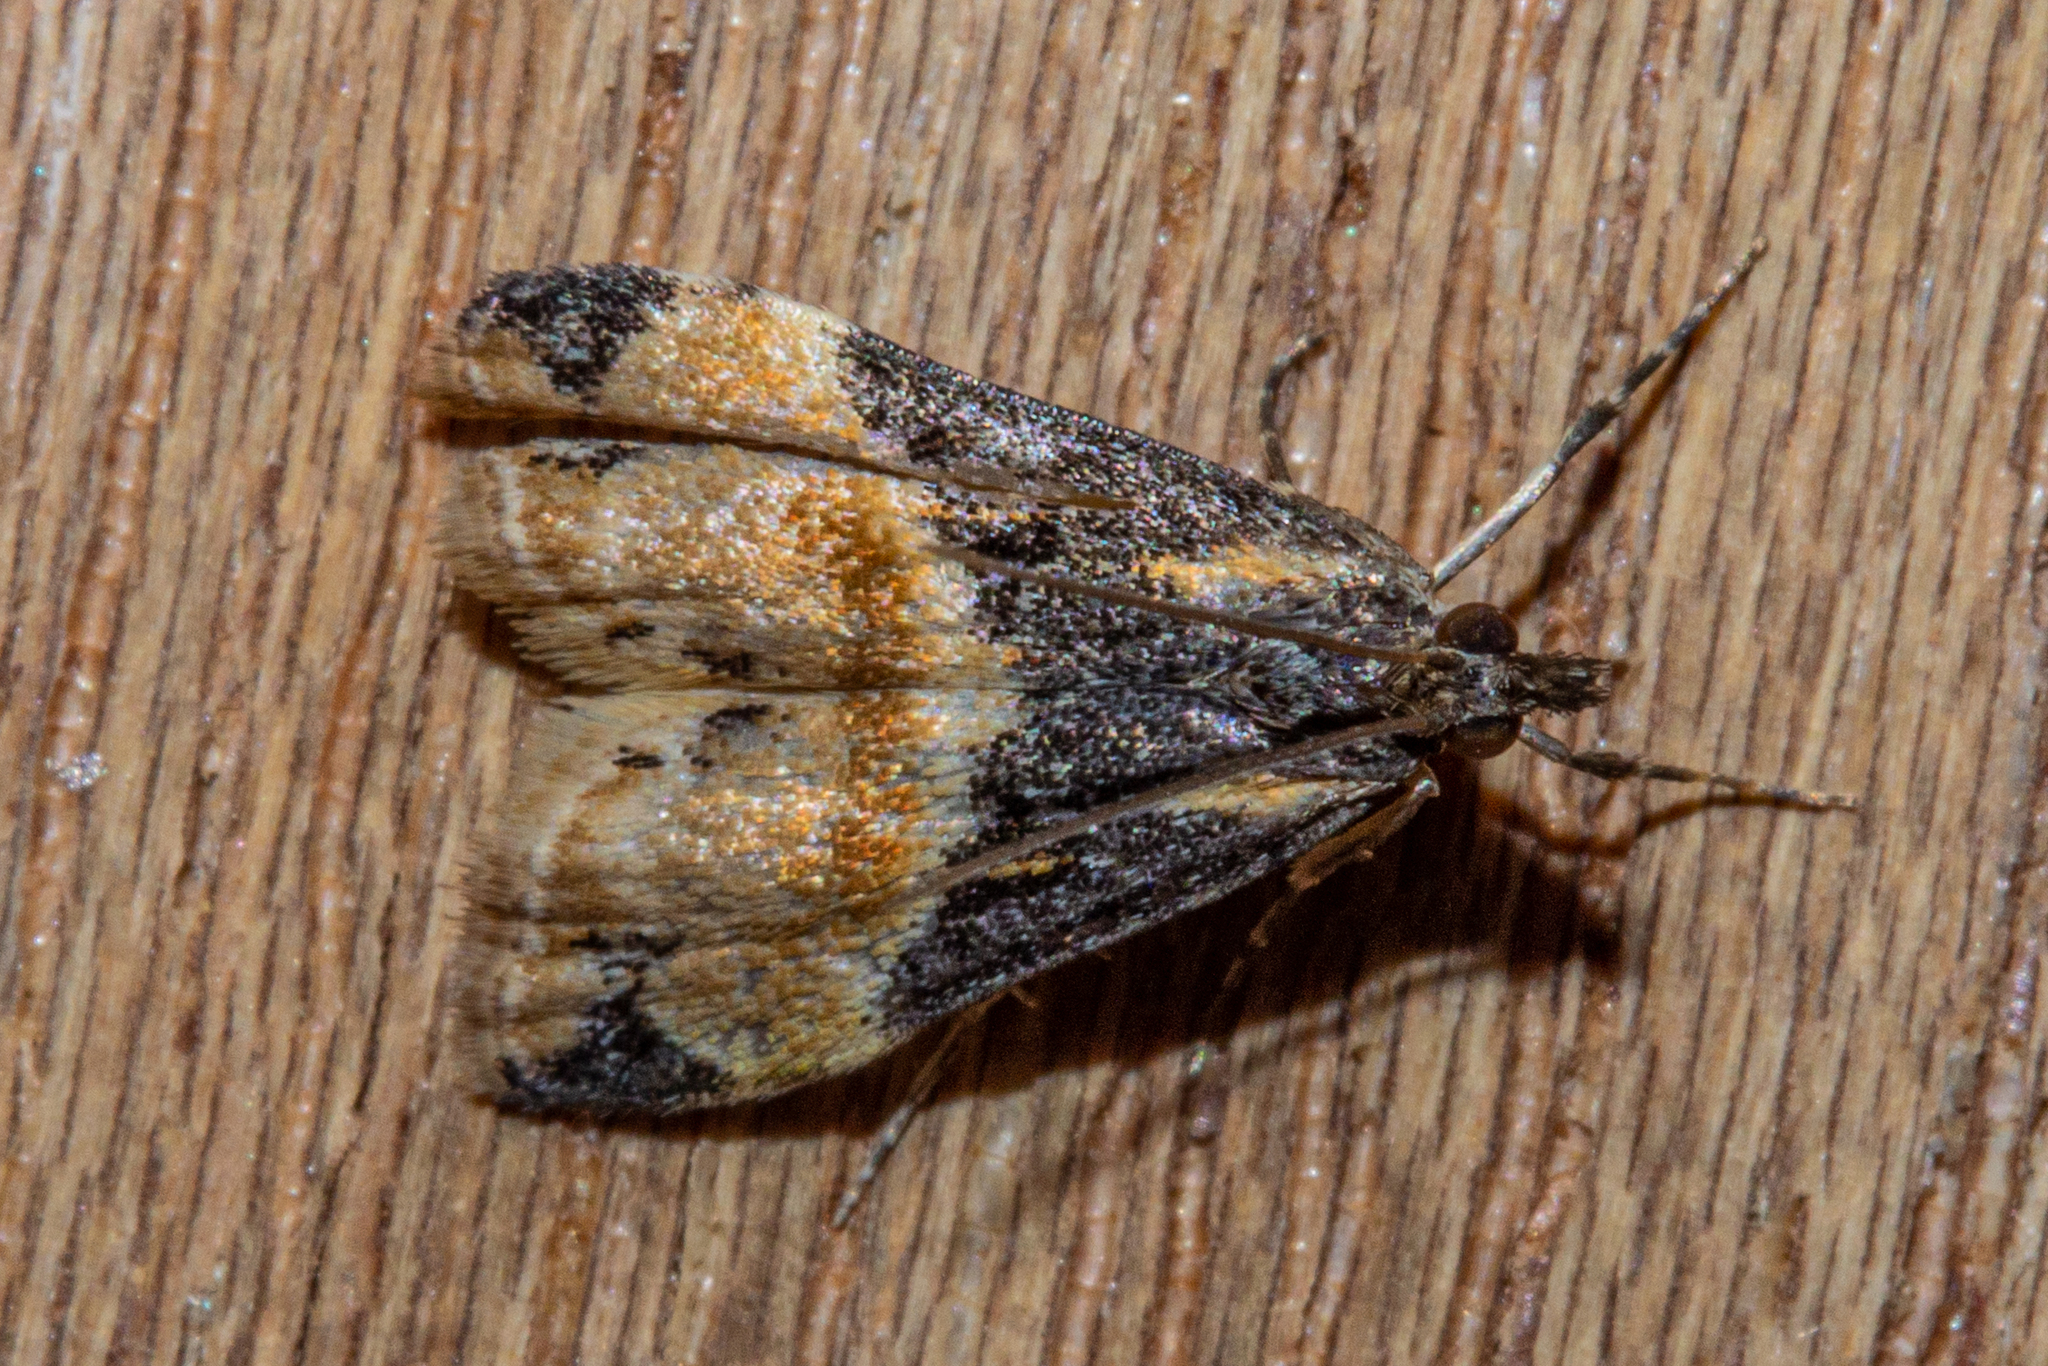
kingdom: Animalia
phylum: Arthropoda
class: Insecta
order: Lepidoptera
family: Crambidae
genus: Eudonia
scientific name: Eudonia chlamydota
